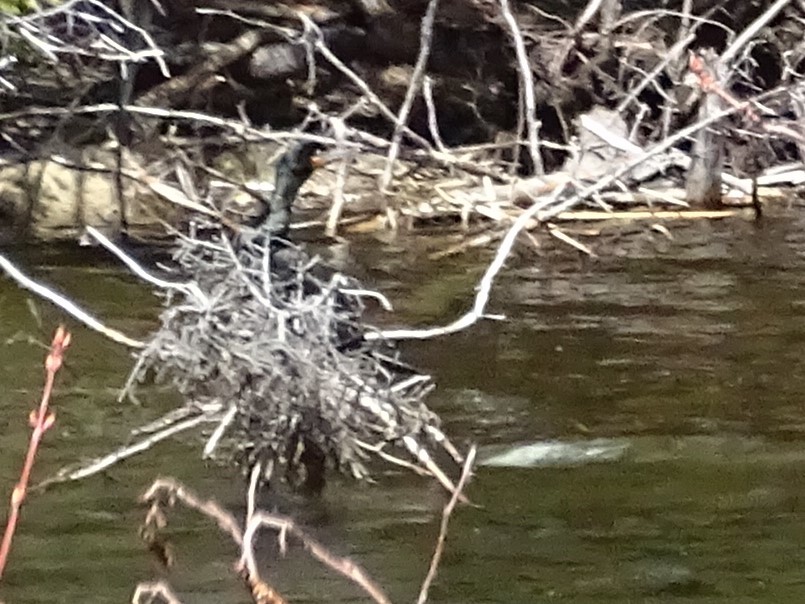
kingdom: Animalia
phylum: Chordata
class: Aves
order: Suliformes
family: Phalacrocoracidae
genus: Phalacrocorax
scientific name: Phalacrocorax auritus
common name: Double-crested cormorant
